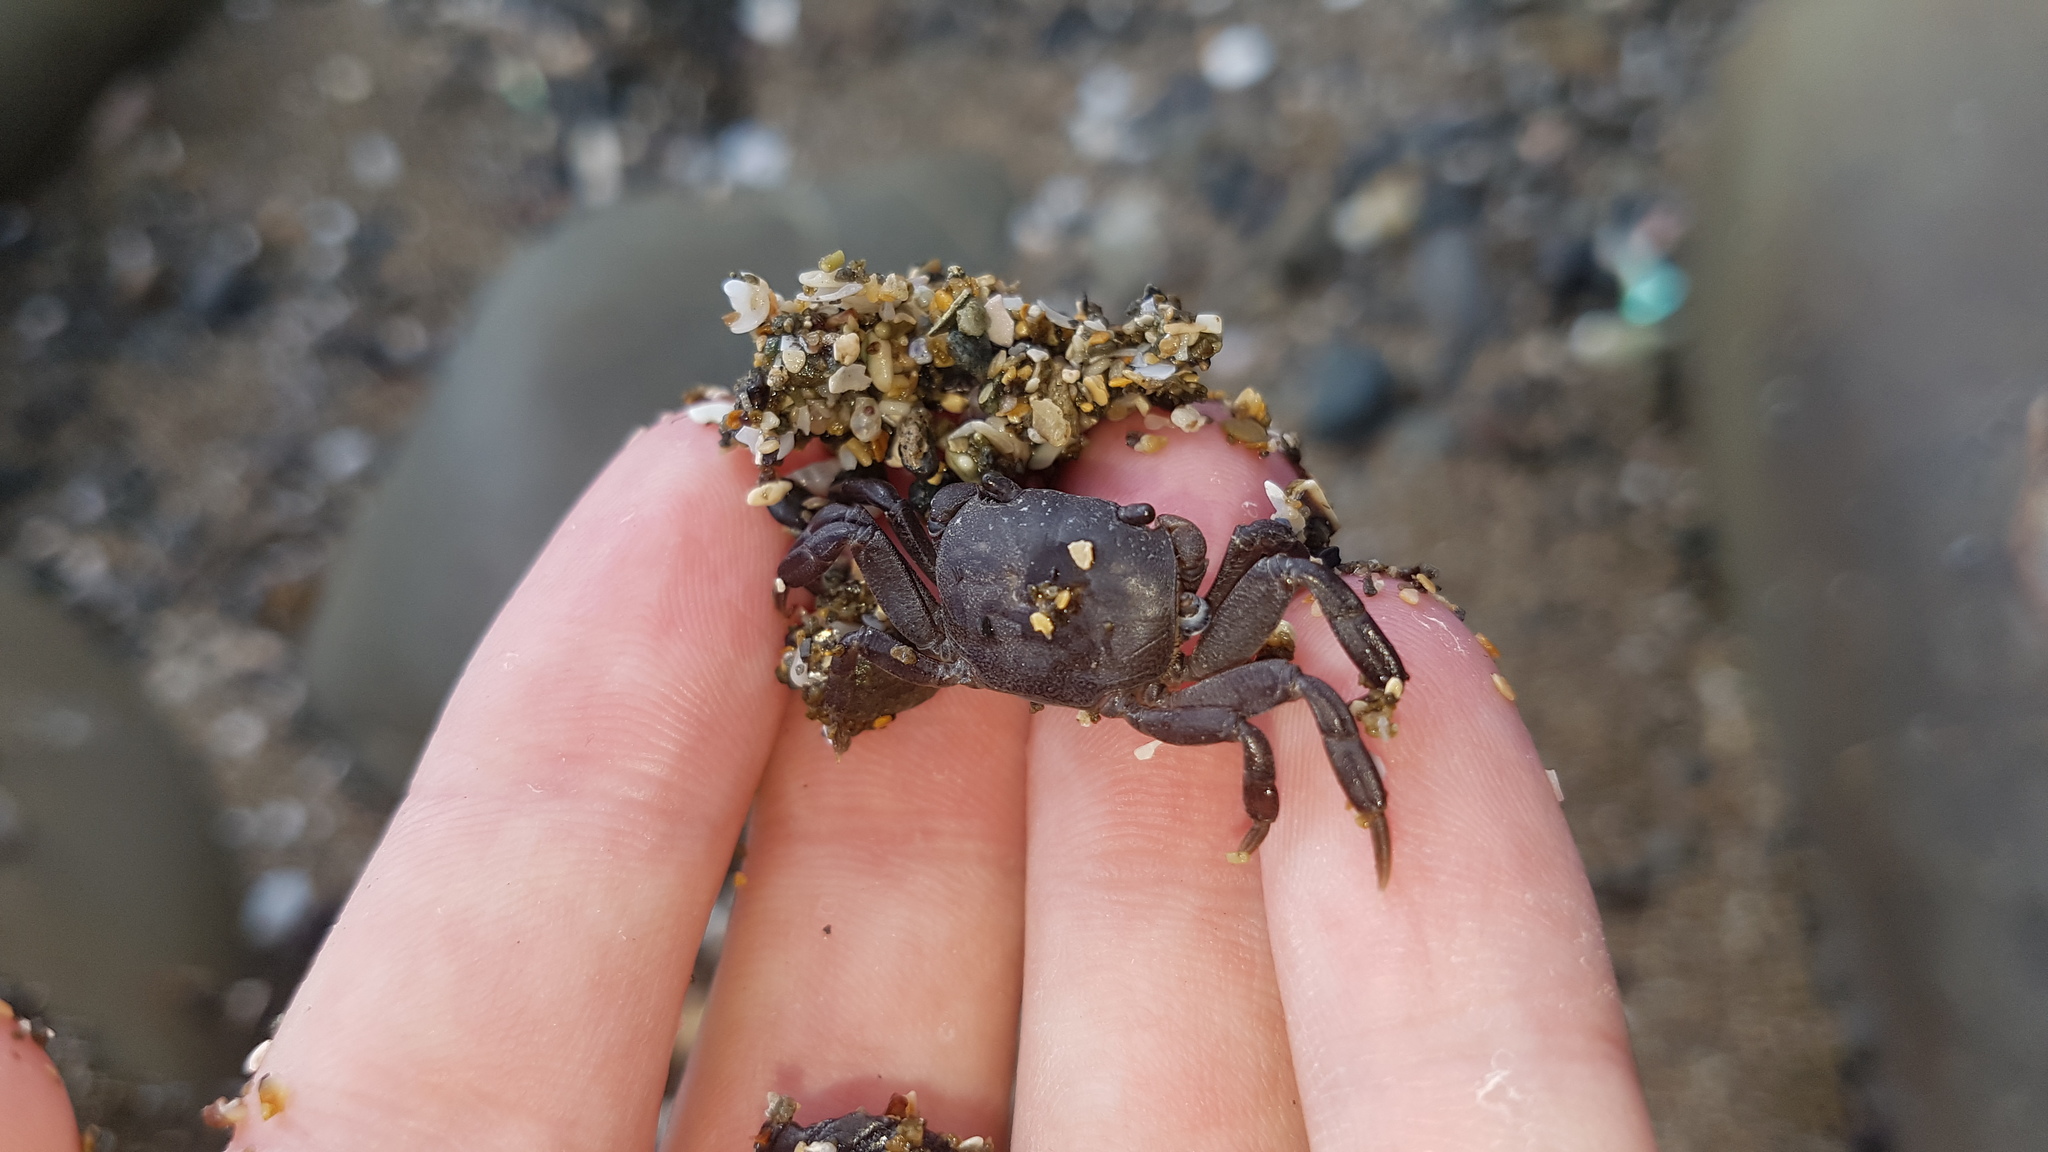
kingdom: Animalia
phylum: Arthropoda
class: Malacostraca
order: Decapoda
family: Varunidae
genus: Cyclograpsus
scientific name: Cyclograpsus lavauxi
